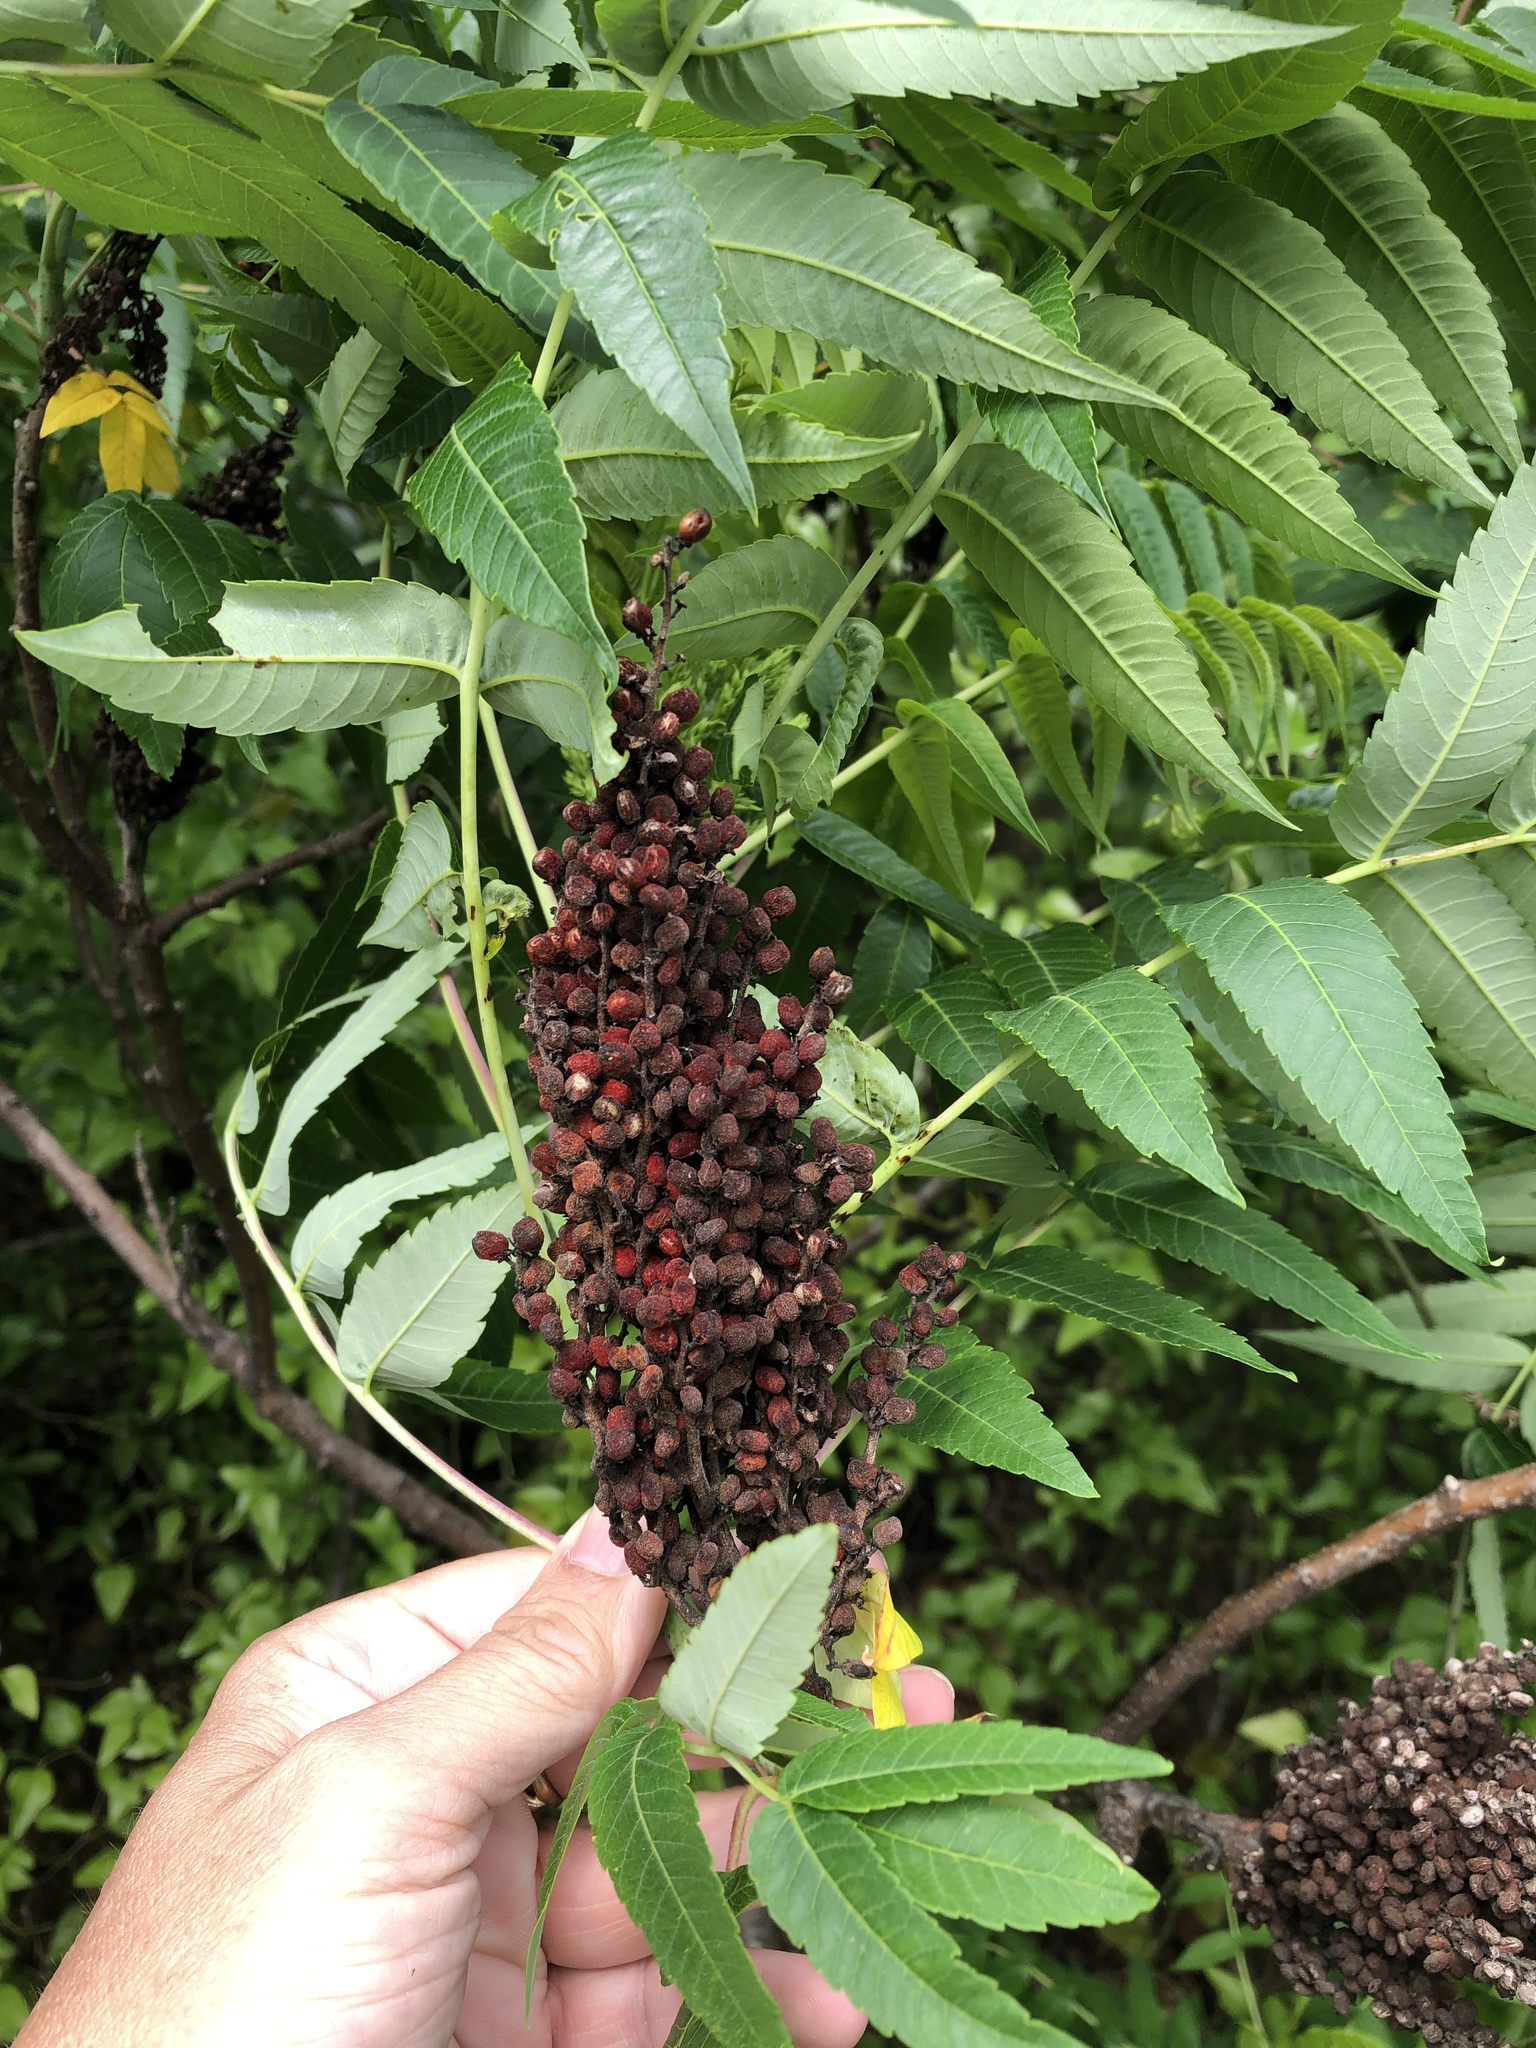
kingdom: Plantae
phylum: Tracheophyta
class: Magnoliopsida
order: Sapindales
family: Anacardiaceae
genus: Rhus
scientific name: Rhus glabra
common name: Scarlet sumac
